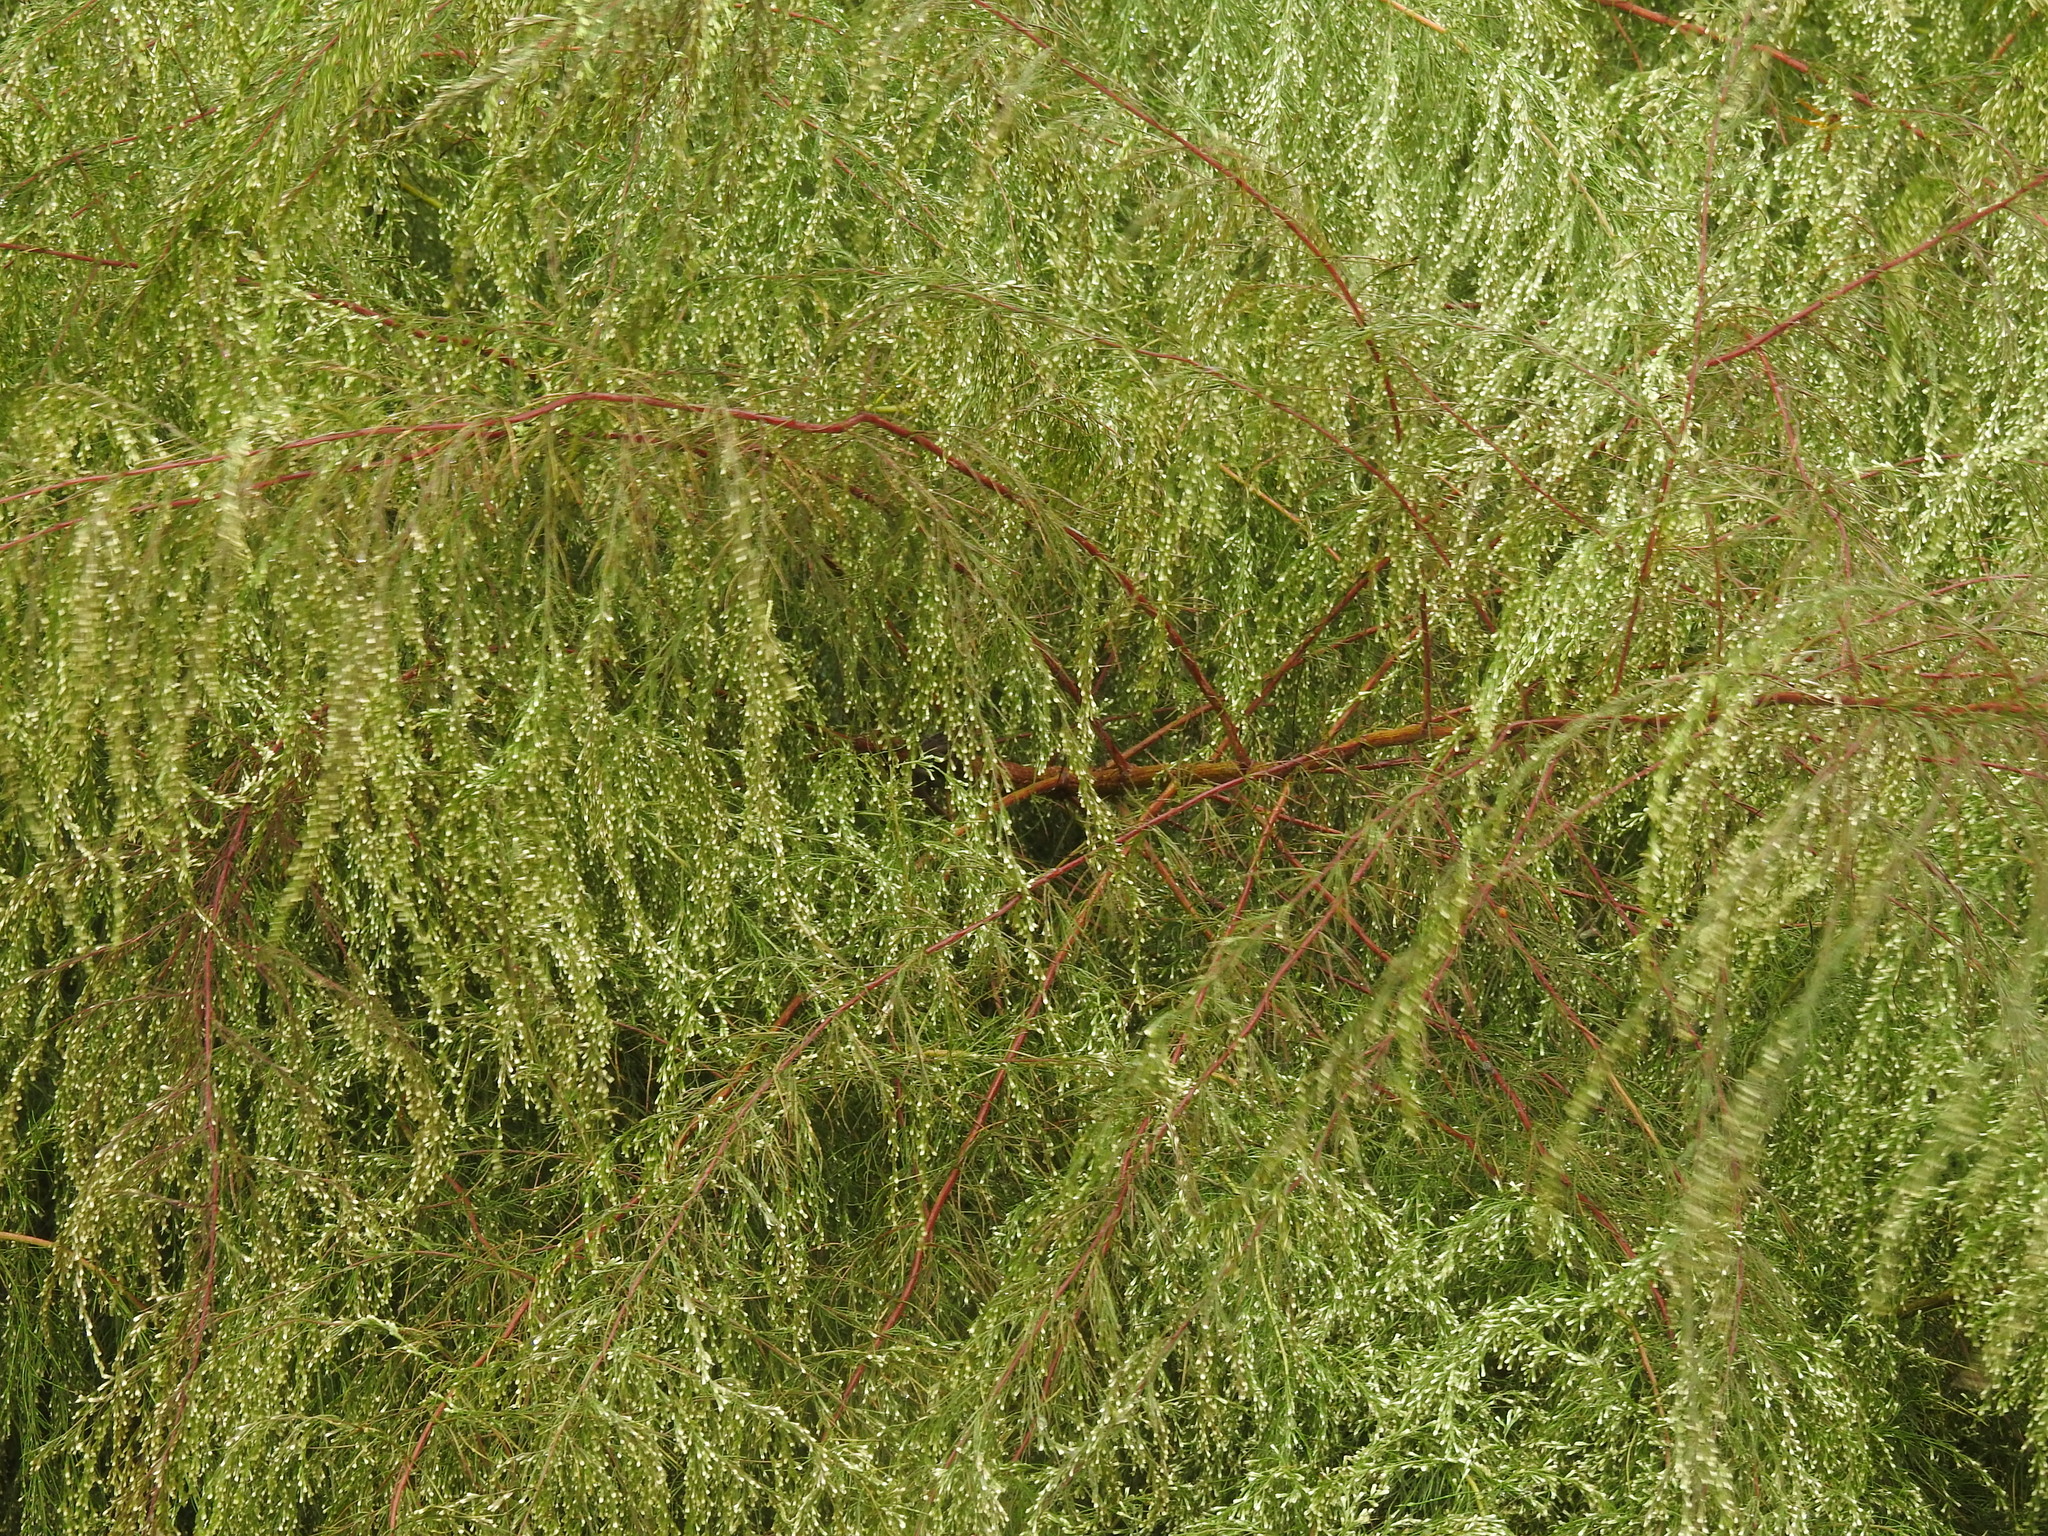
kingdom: Plantae
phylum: Tracheophyta
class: Magnoliopsida
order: Asterales
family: Asteraceae
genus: Eupatorium
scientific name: Eupatorium capillifolium
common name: Dog-fennel
